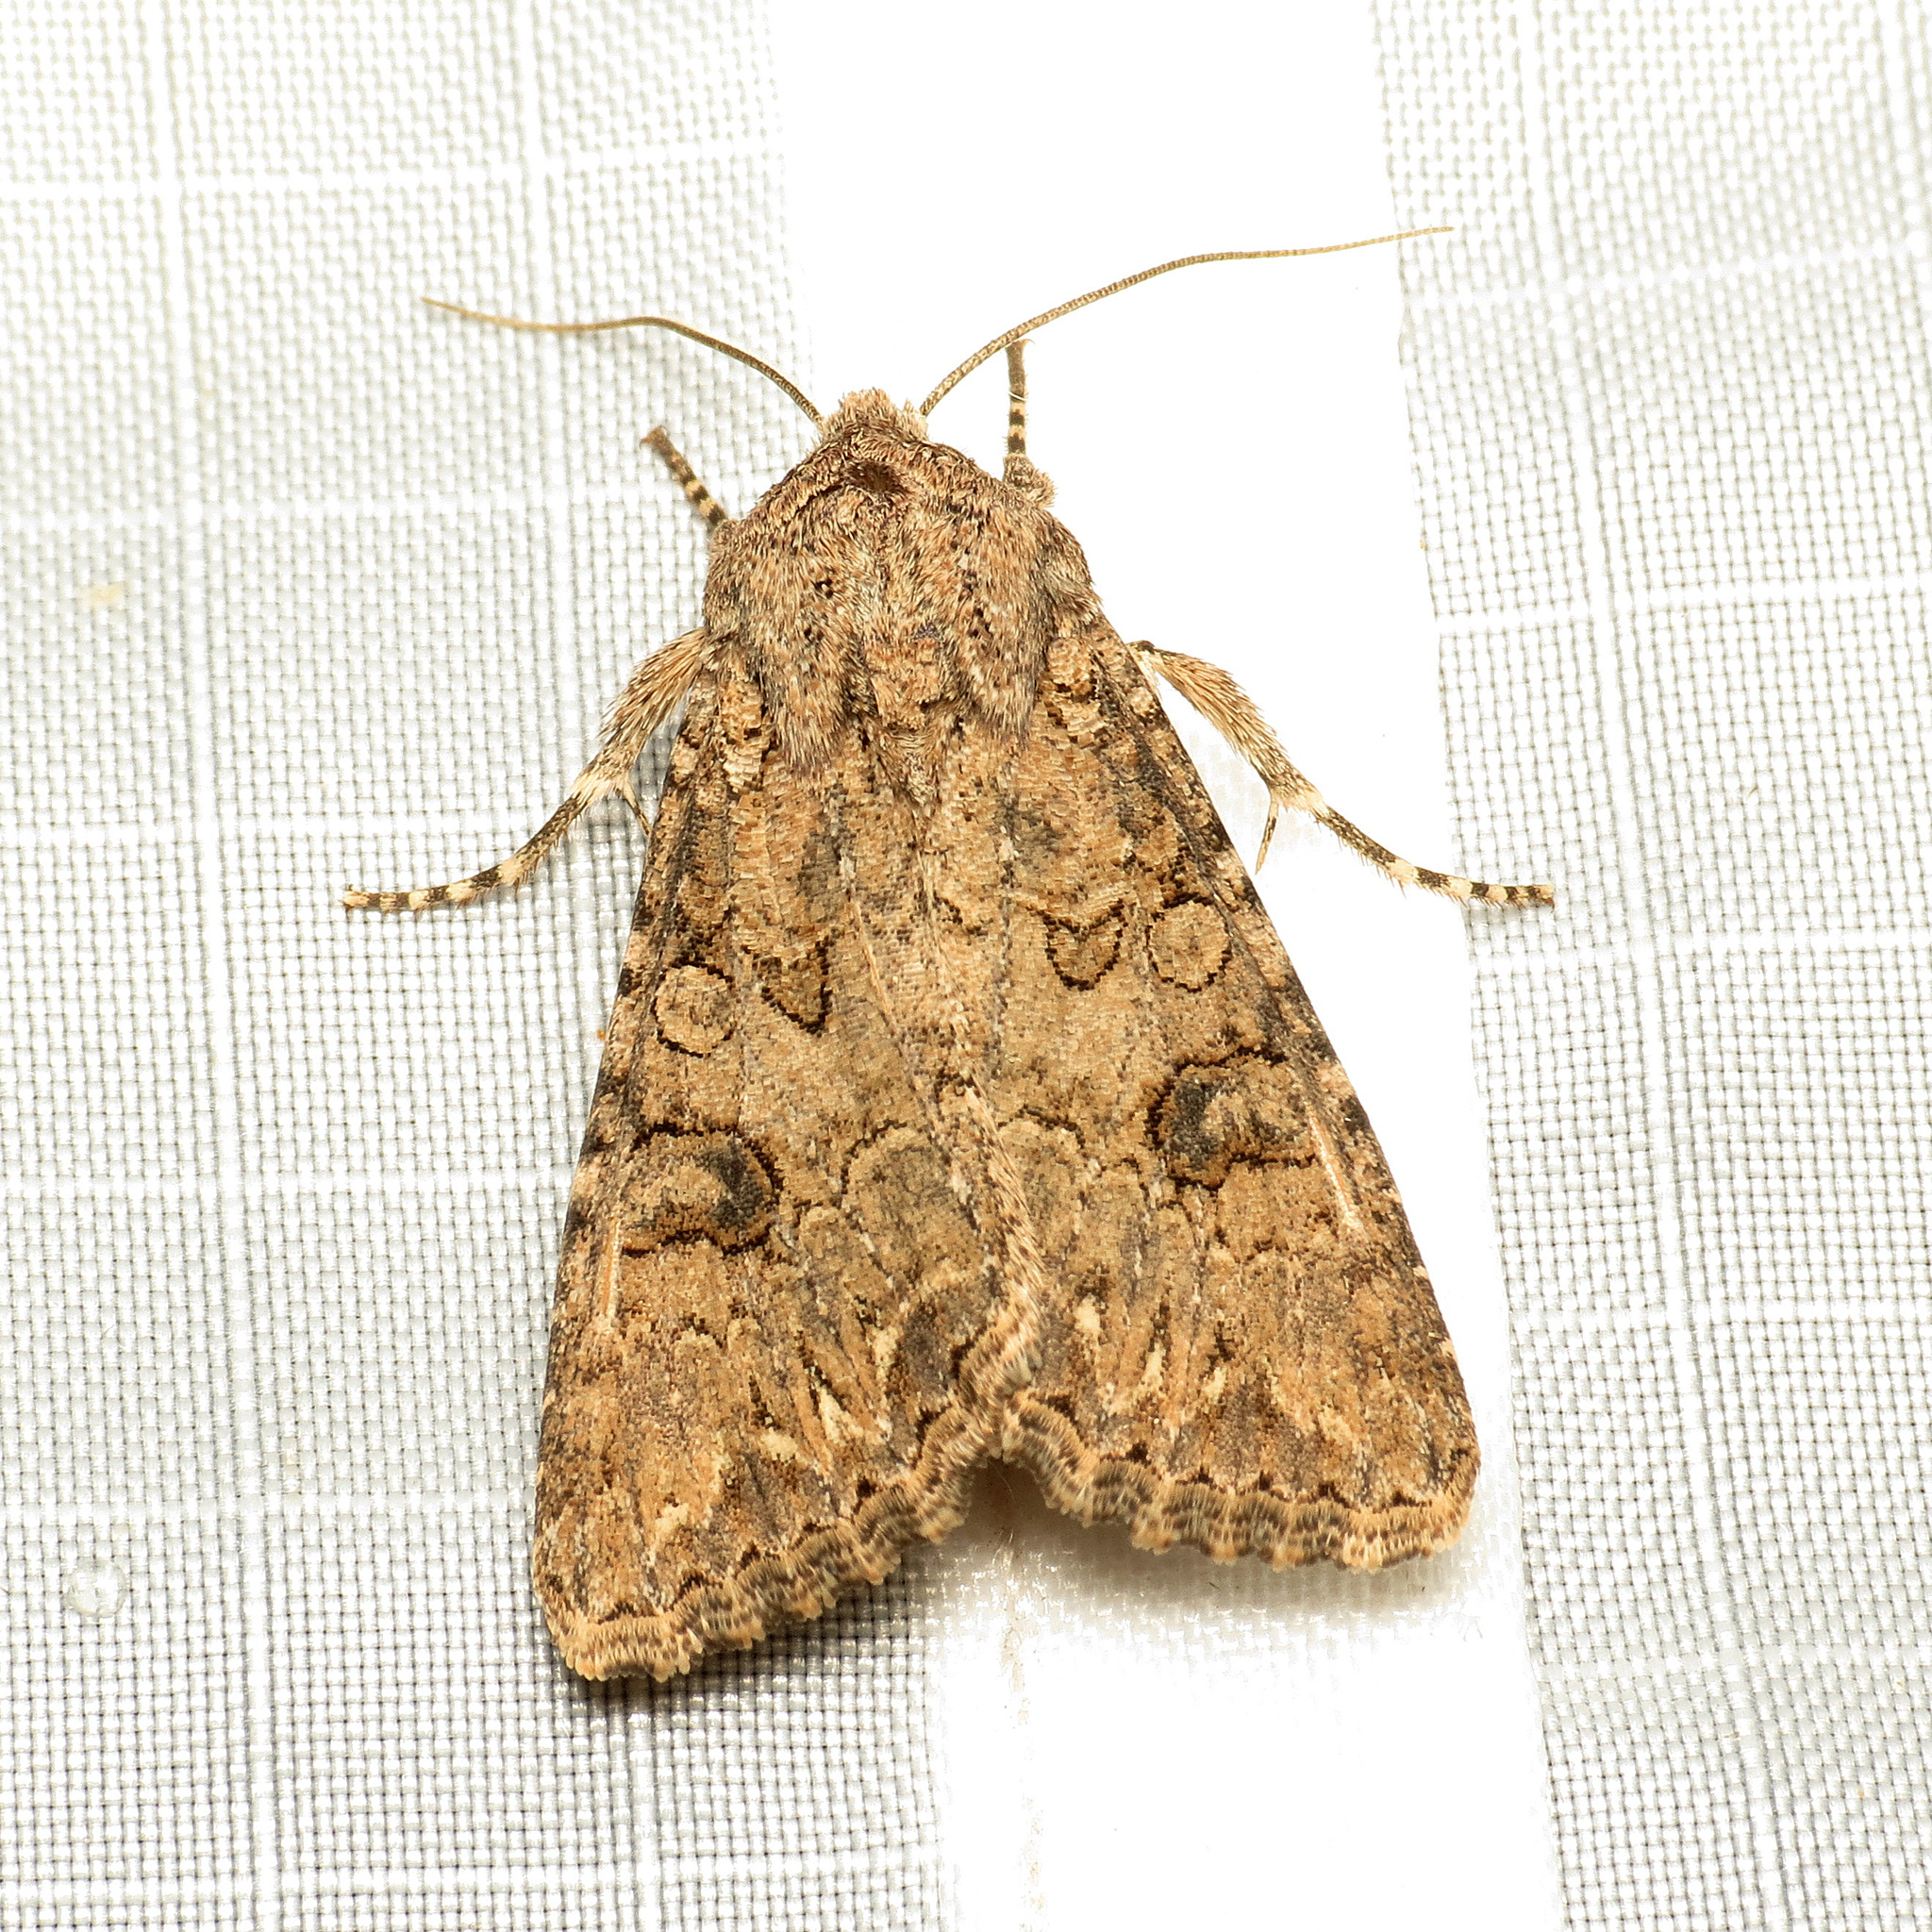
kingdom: Animalia
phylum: Arthropoda
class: Insecta
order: Lepidoptera
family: Noctuidae
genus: Anarta
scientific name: Anarta trifolii
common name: Clover cutworm moth
